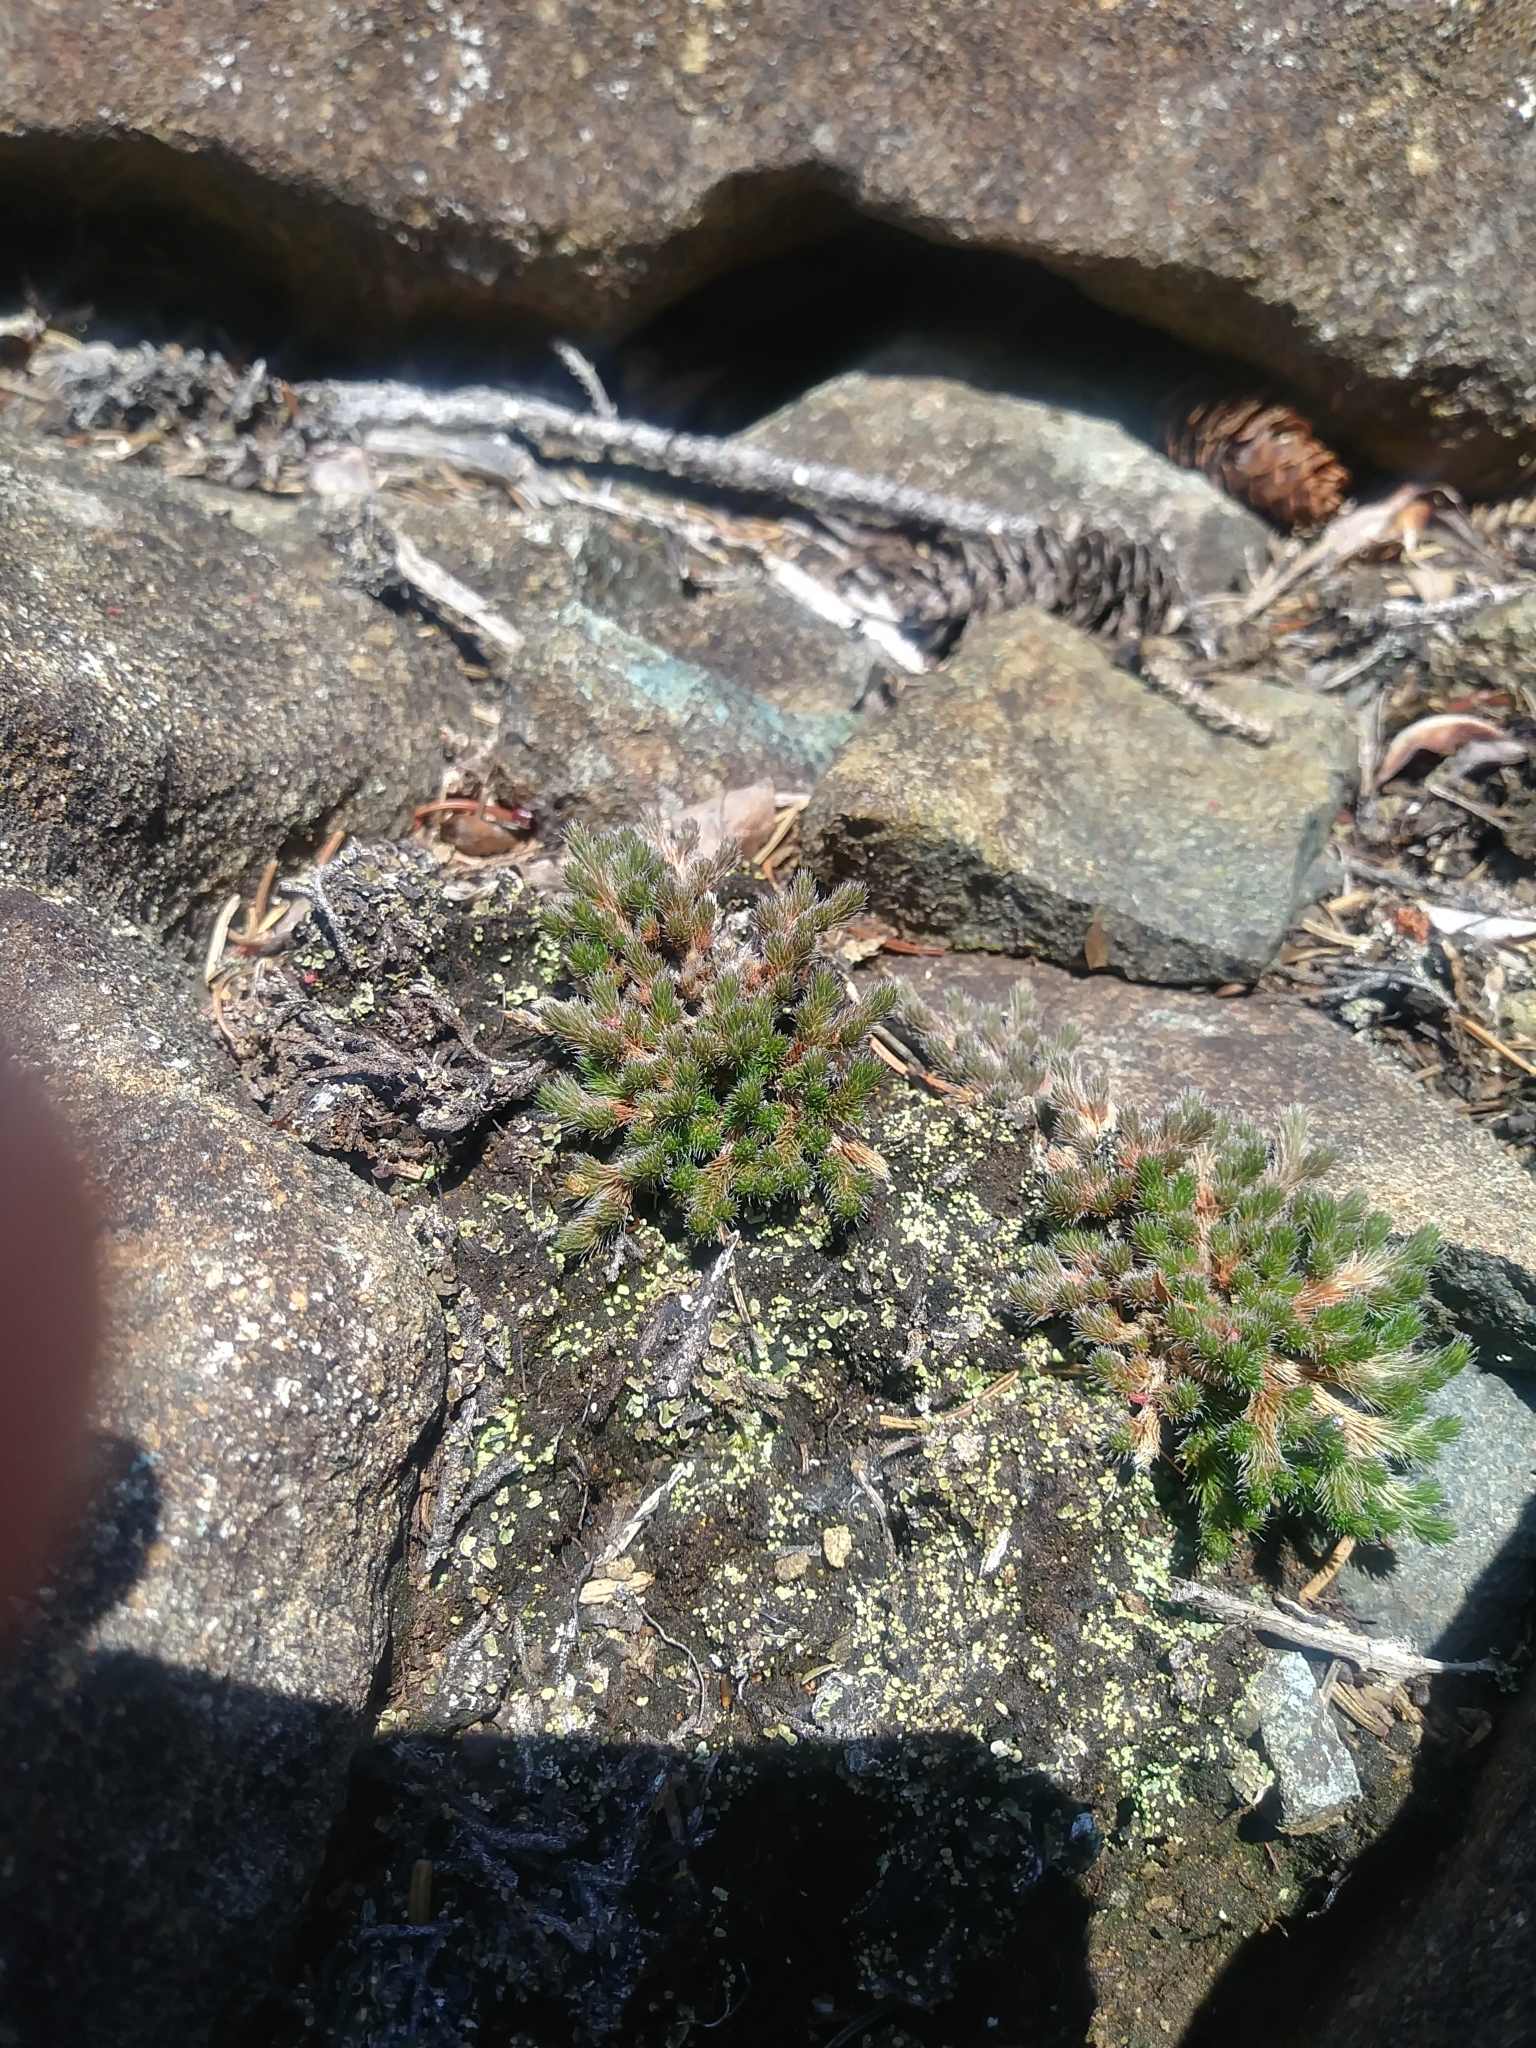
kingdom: Plantae
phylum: Tracheophyta
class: Lycopodiopsida
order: Selaginellales
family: Selaginellaceae
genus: Selaginella
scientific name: Selaginella rupestris
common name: Dwarf spikemoss
